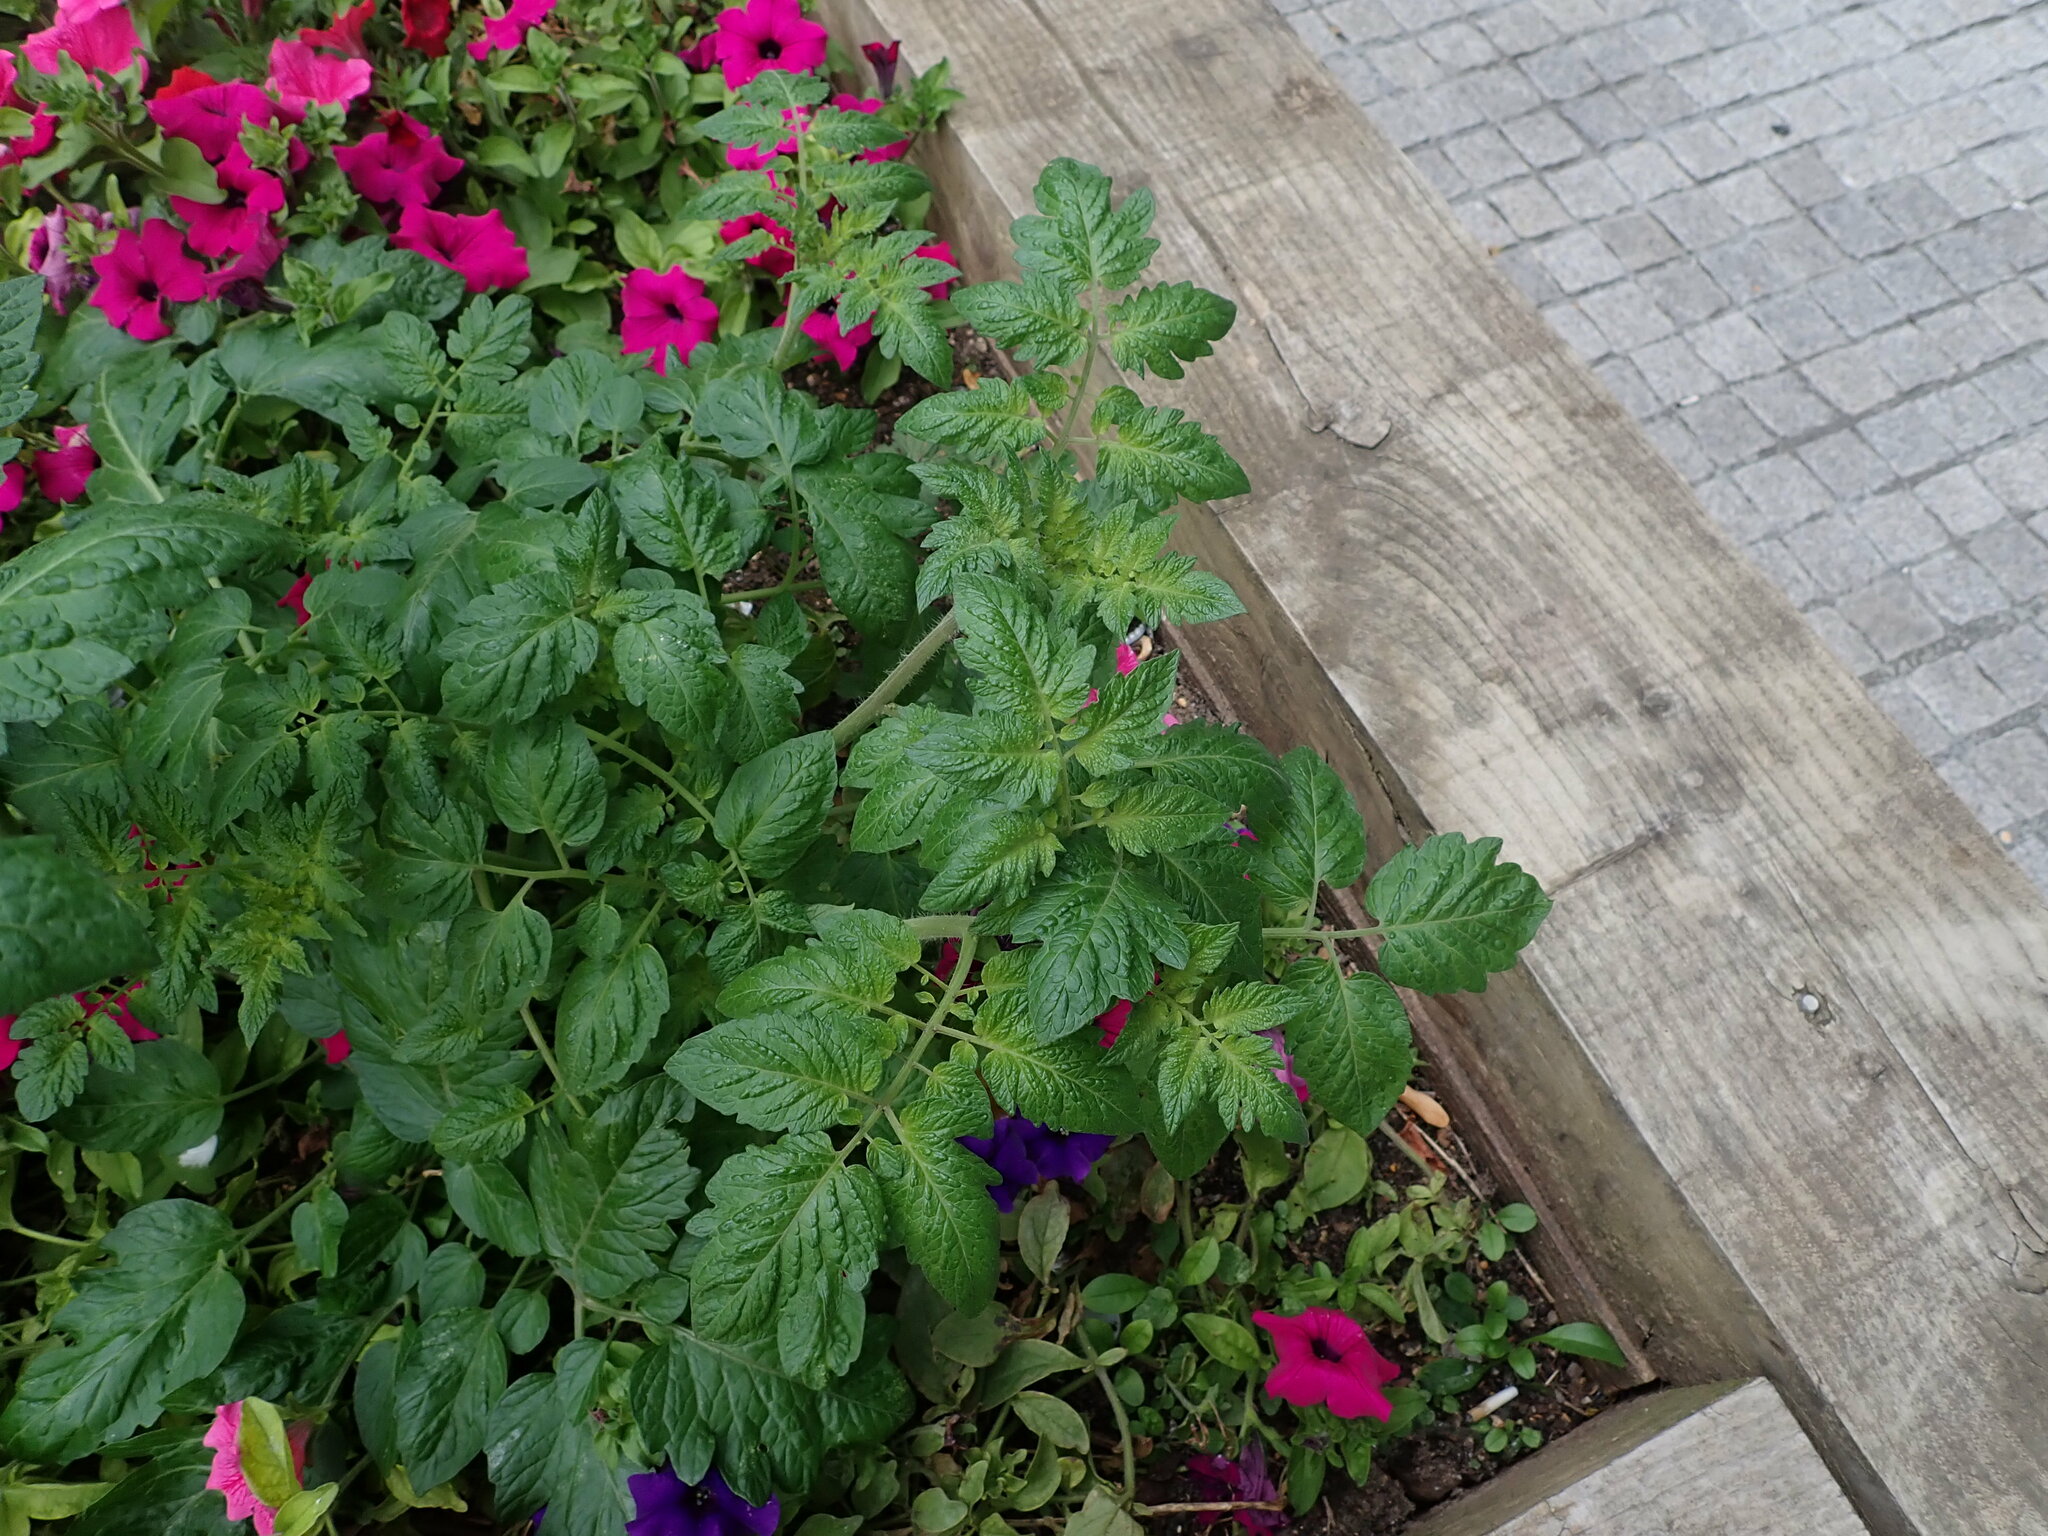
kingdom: Plantae
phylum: Tracheophyta
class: Magnoliopsida
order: Solanales
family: Solanaceae
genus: Solanum
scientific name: Solanum lycopersicum
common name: Garden tomato
